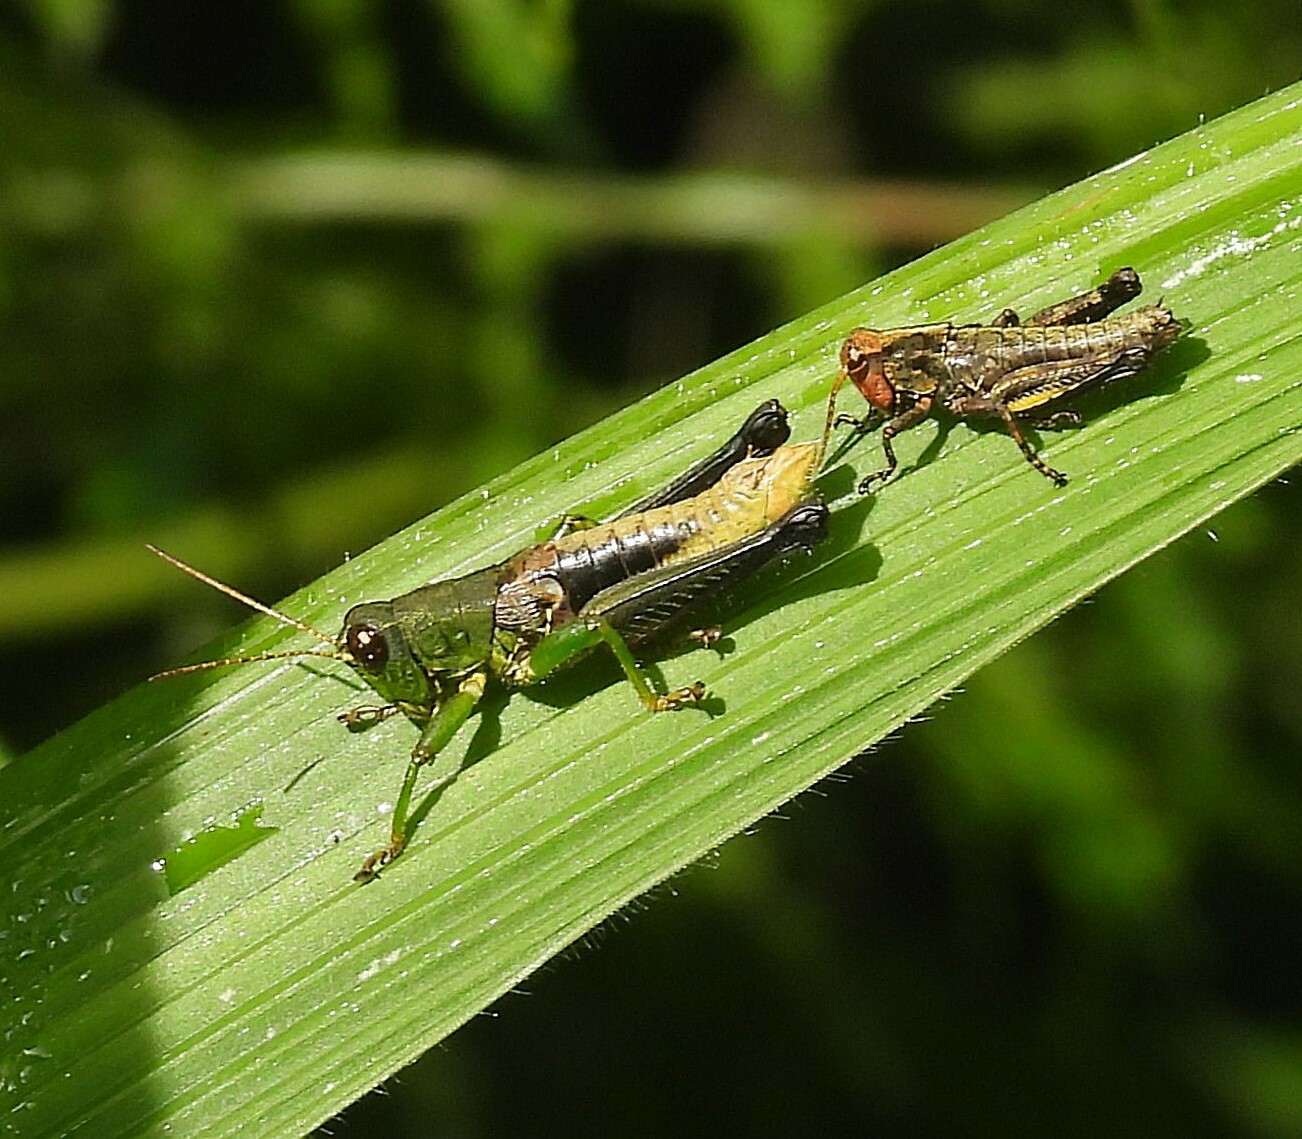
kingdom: Animalia
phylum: Arthropoda
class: Insecta
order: Orthoptera
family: Acrididae
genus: Dichromatos
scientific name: Dichromatos lilloanus
